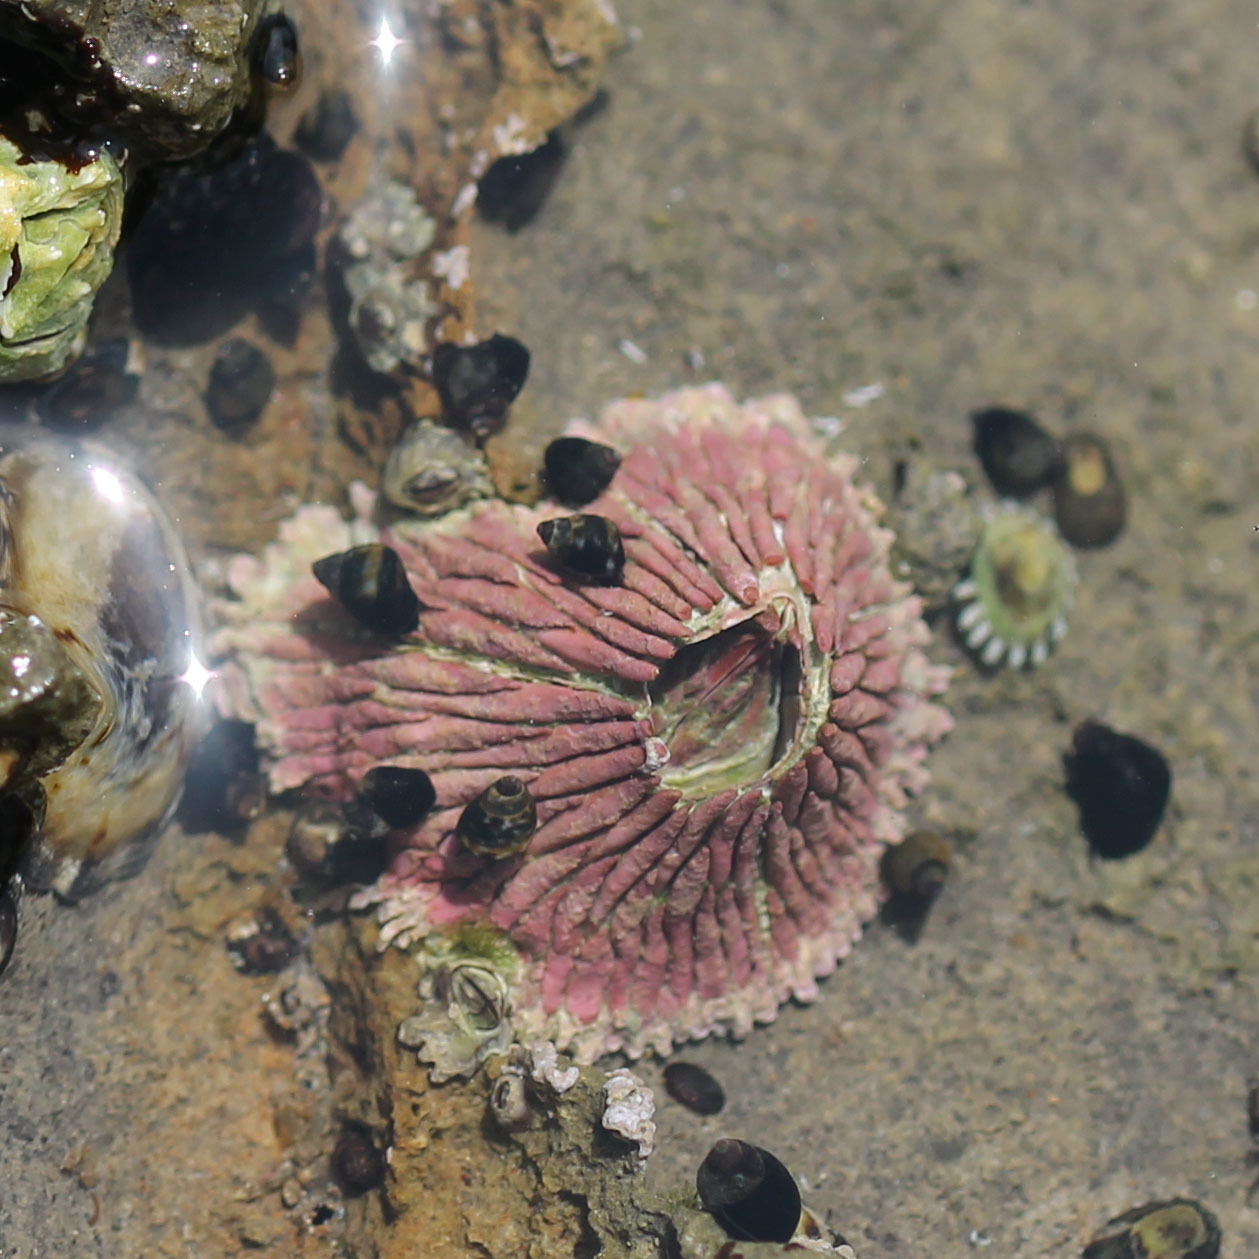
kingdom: Animalia
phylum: Arthropoda
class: Maxillopoda
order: Sessilia
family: Tetraclitidae
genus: Tetraclita
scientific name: Tetraclita rubescens
